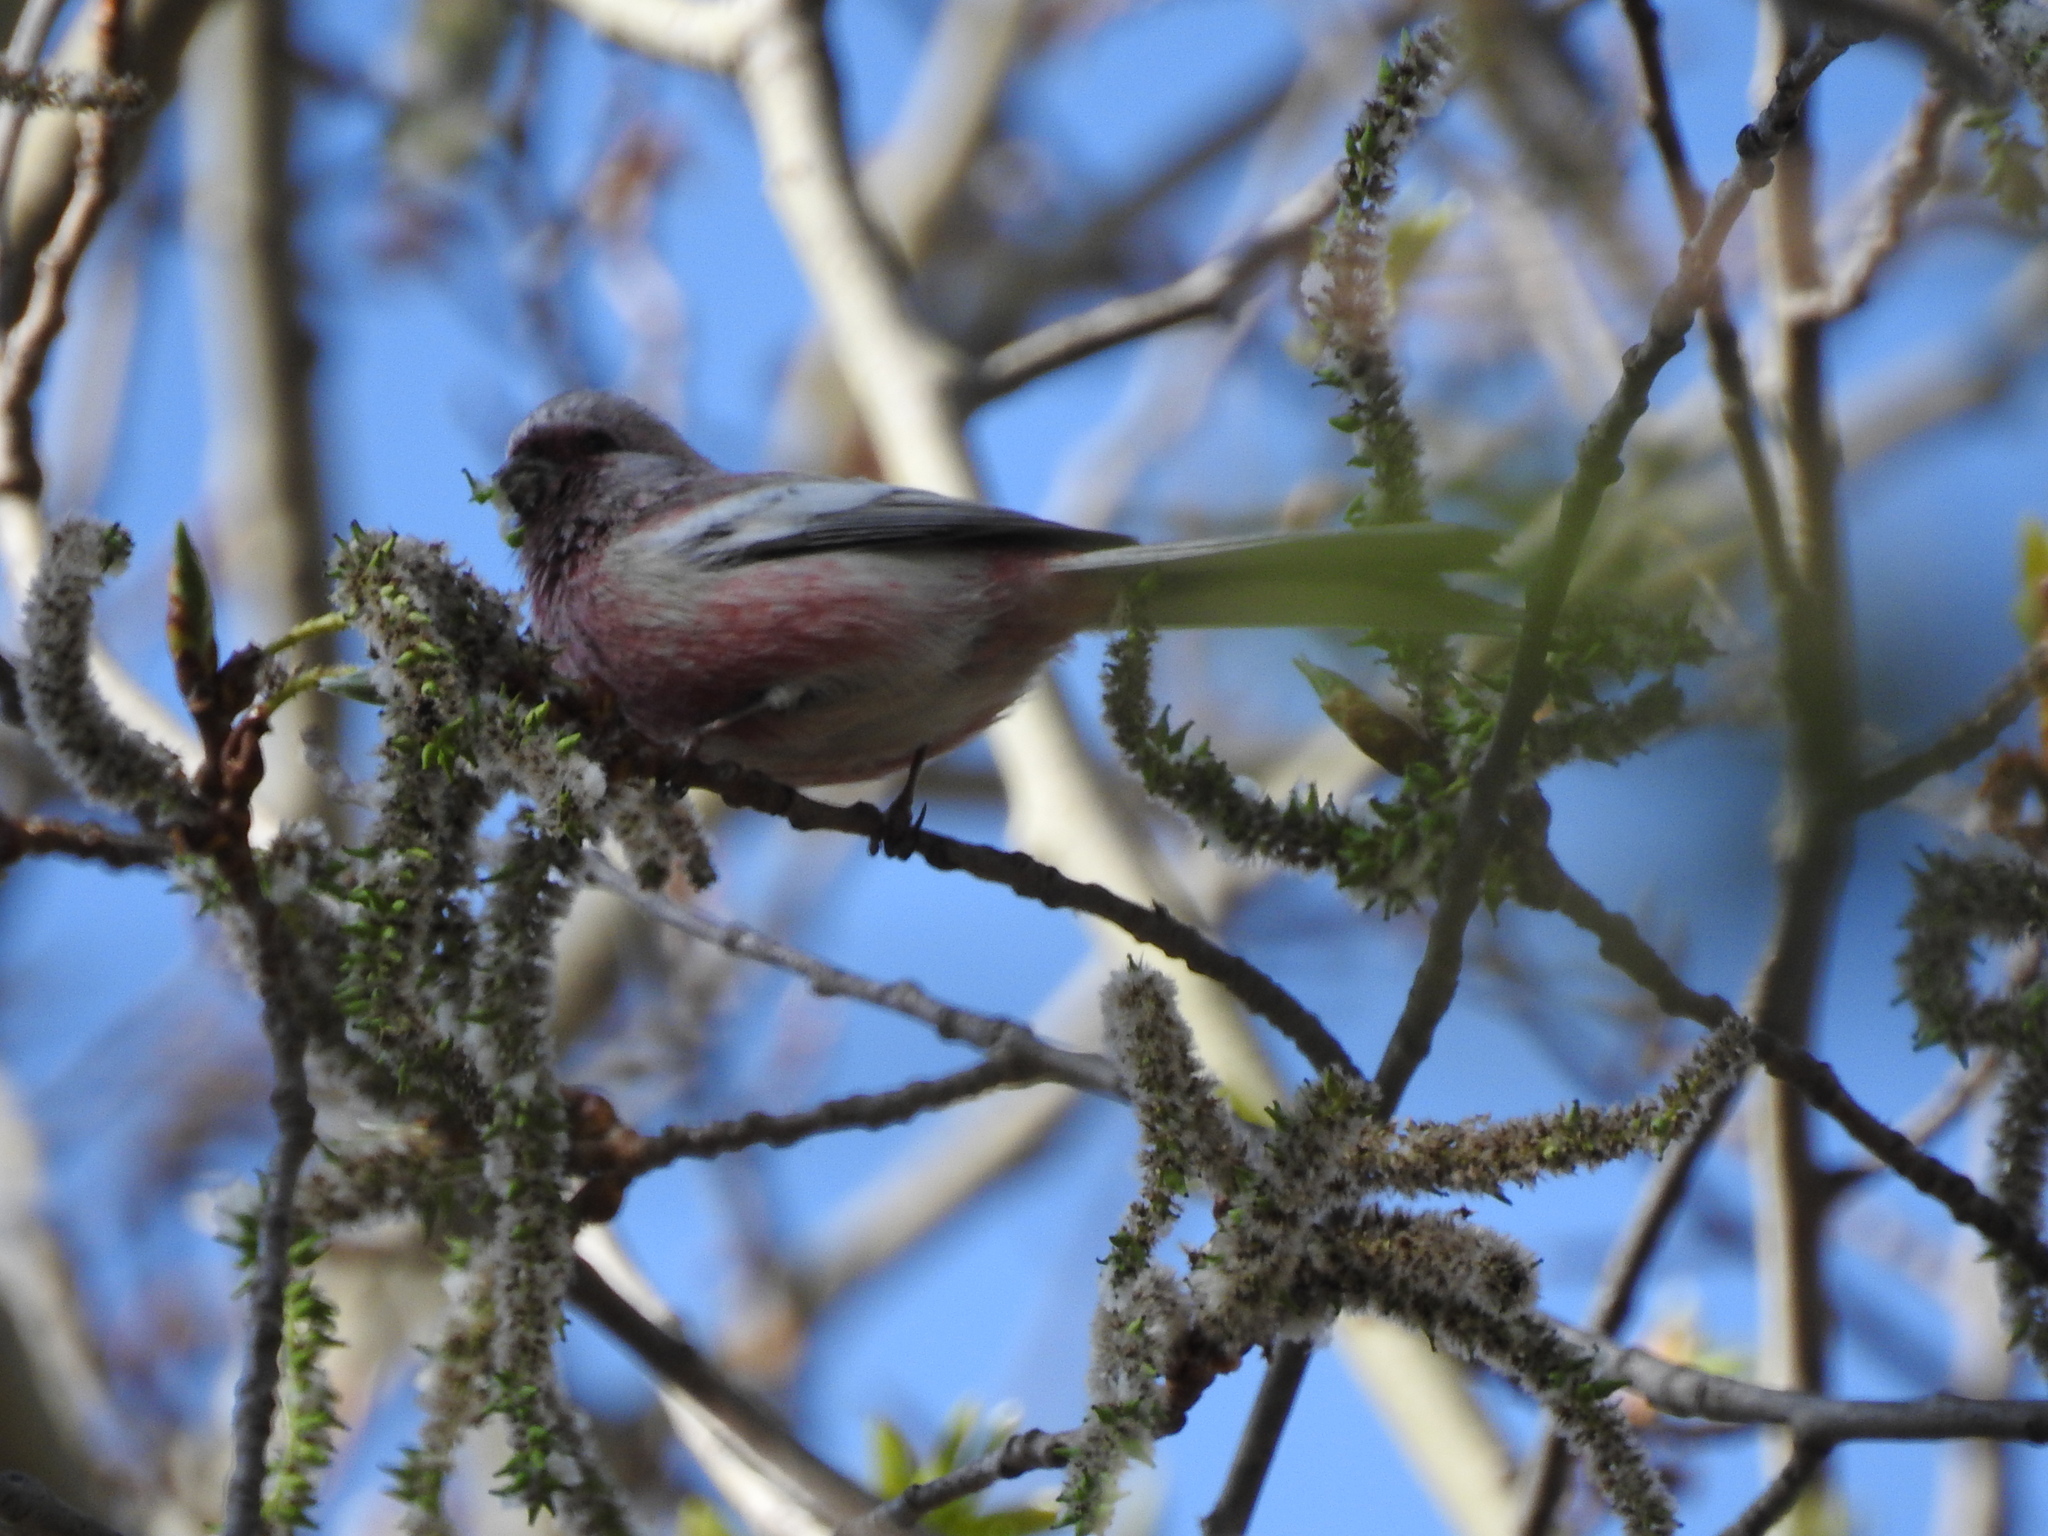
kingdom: Animalia
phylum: Chordata
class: Aves
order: Passeriformes
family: Fringillidae
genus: Carpodacus
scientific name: Carpodacus sibiricus
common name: Long-tailed rosefinch
